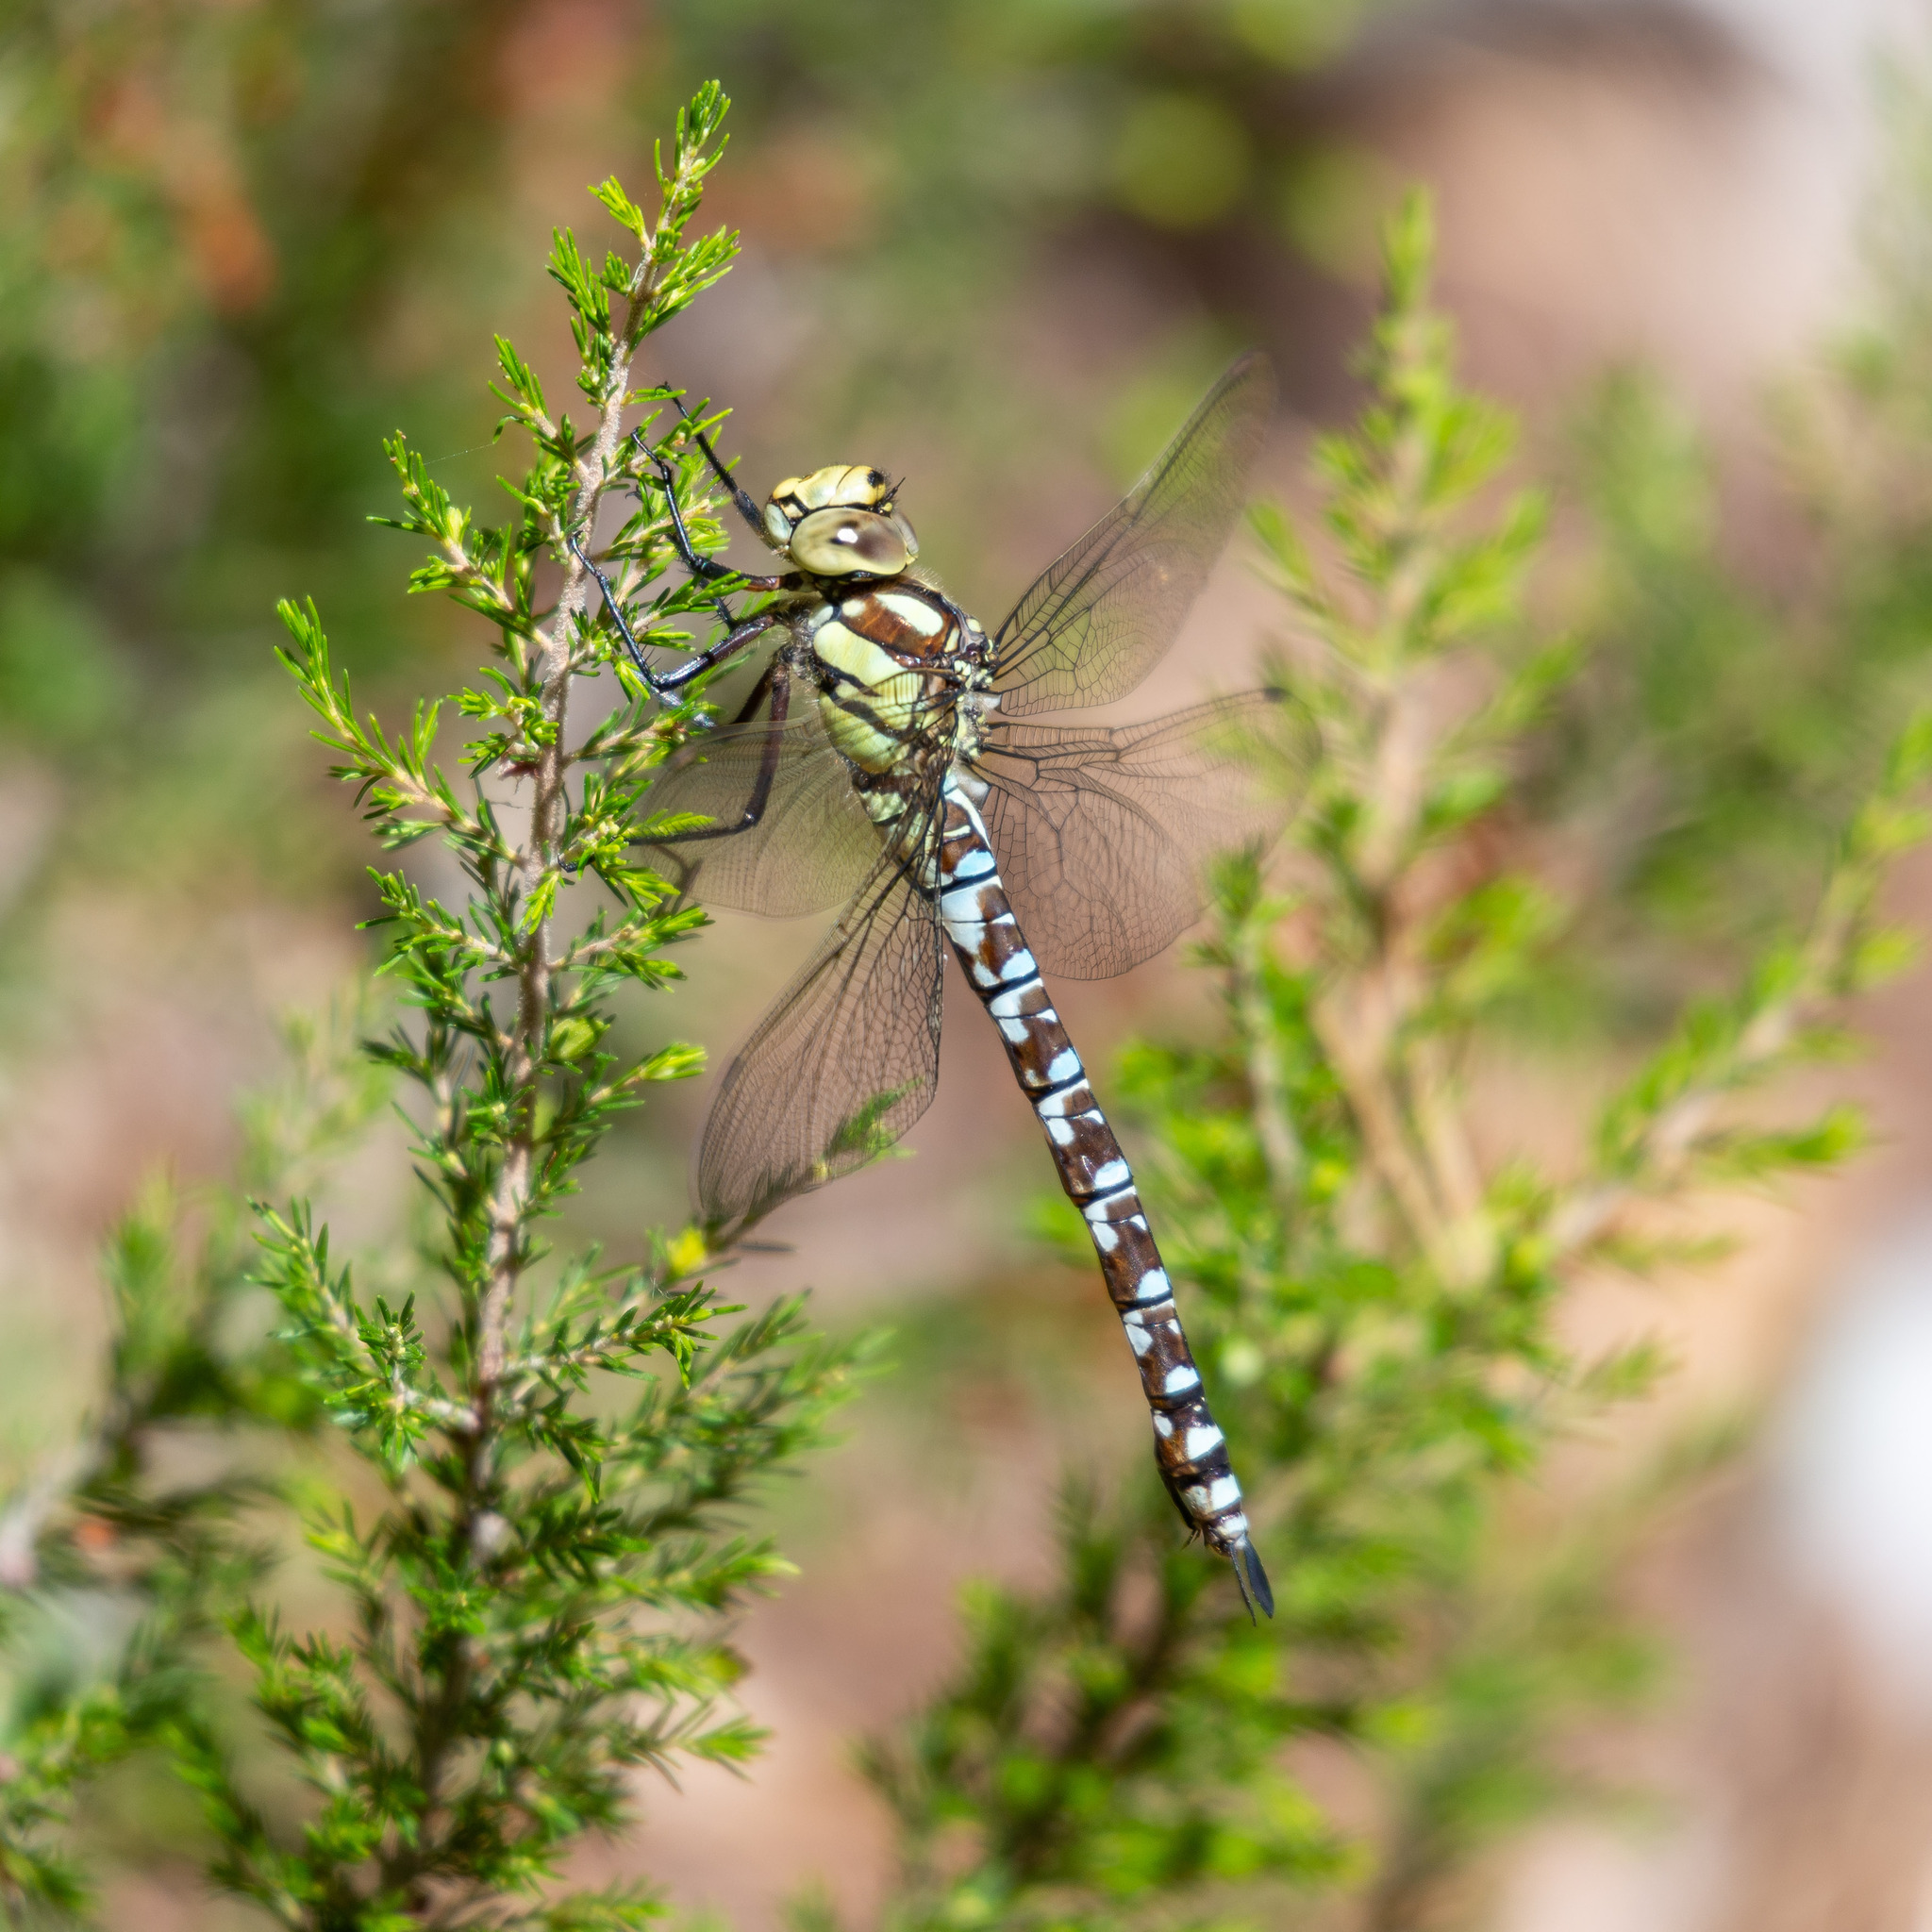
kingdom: Animalia
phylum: Arthropoda
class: Insecta
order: Odonata
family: Aeshnidae
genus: Aeshna
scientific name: Aeshna cyanea
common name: Southern hawker
